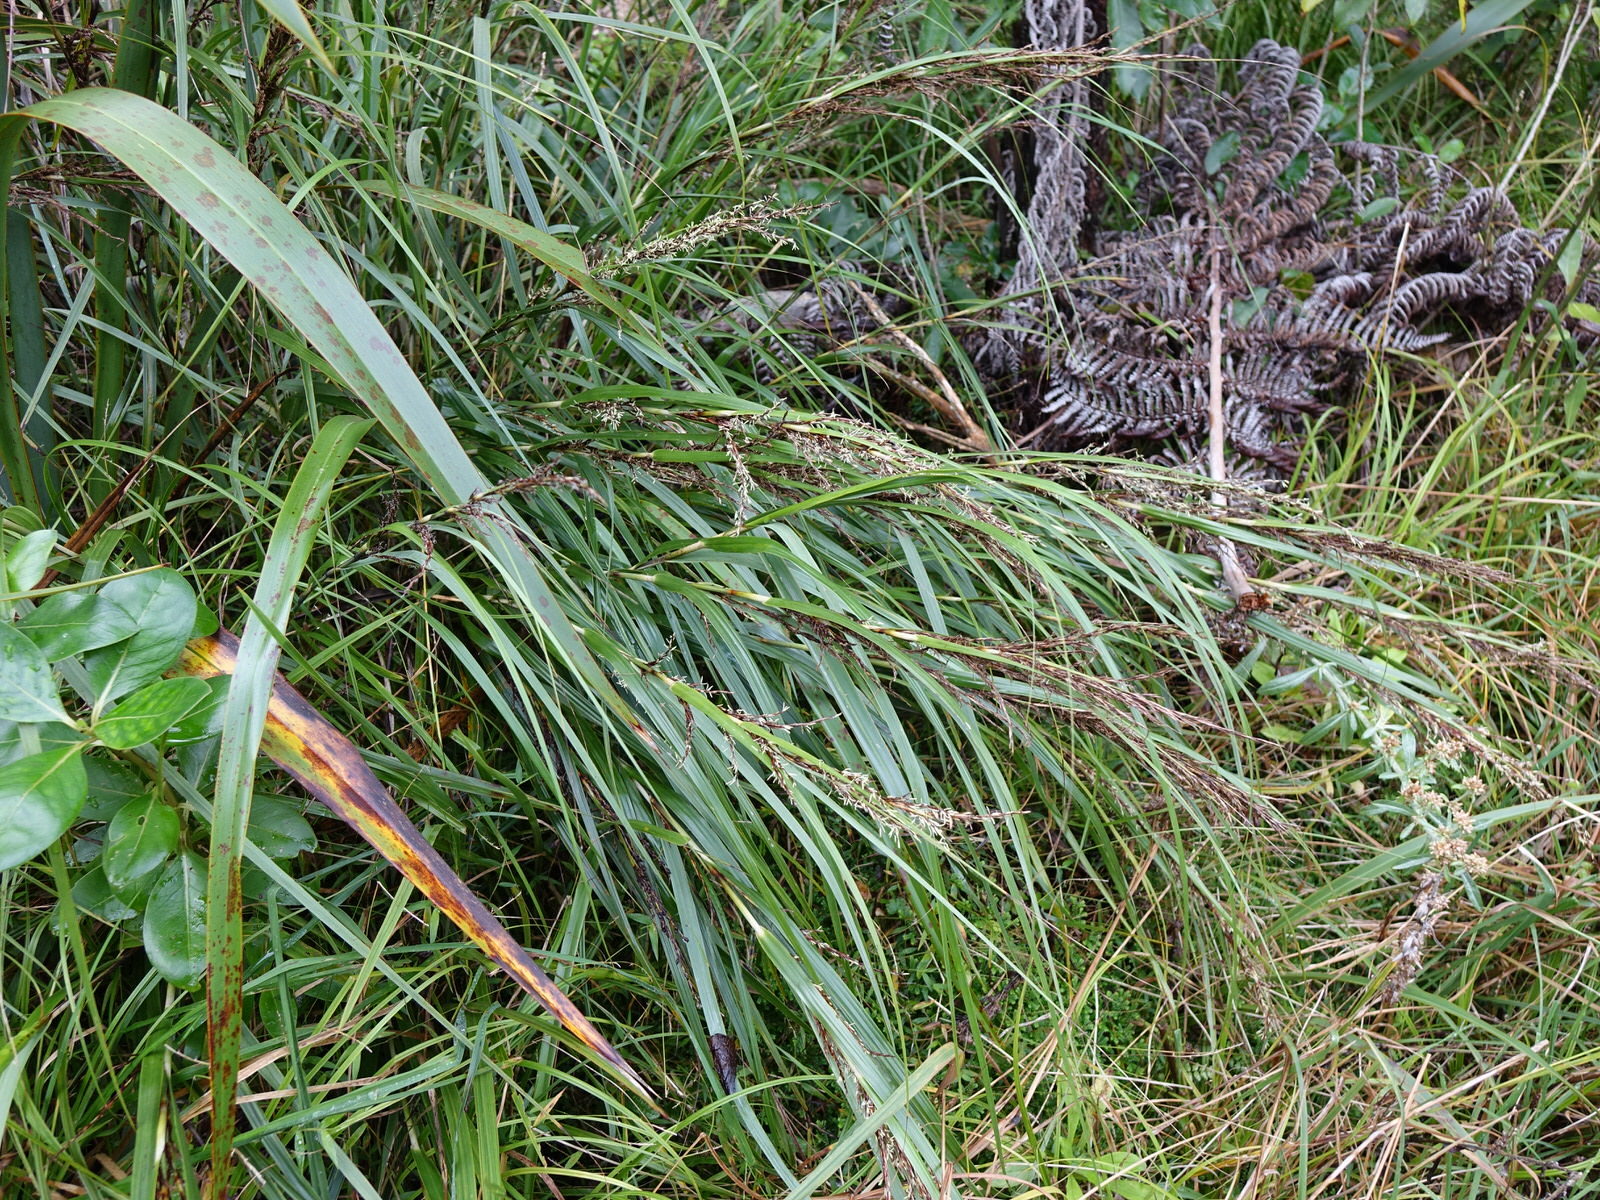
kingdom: Plantae
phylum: Tracheophyta
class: Liliopsida
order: Poales
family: Cyperaceae
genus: Gahnia
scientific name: Gahnia lacera
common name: Sawsedge
